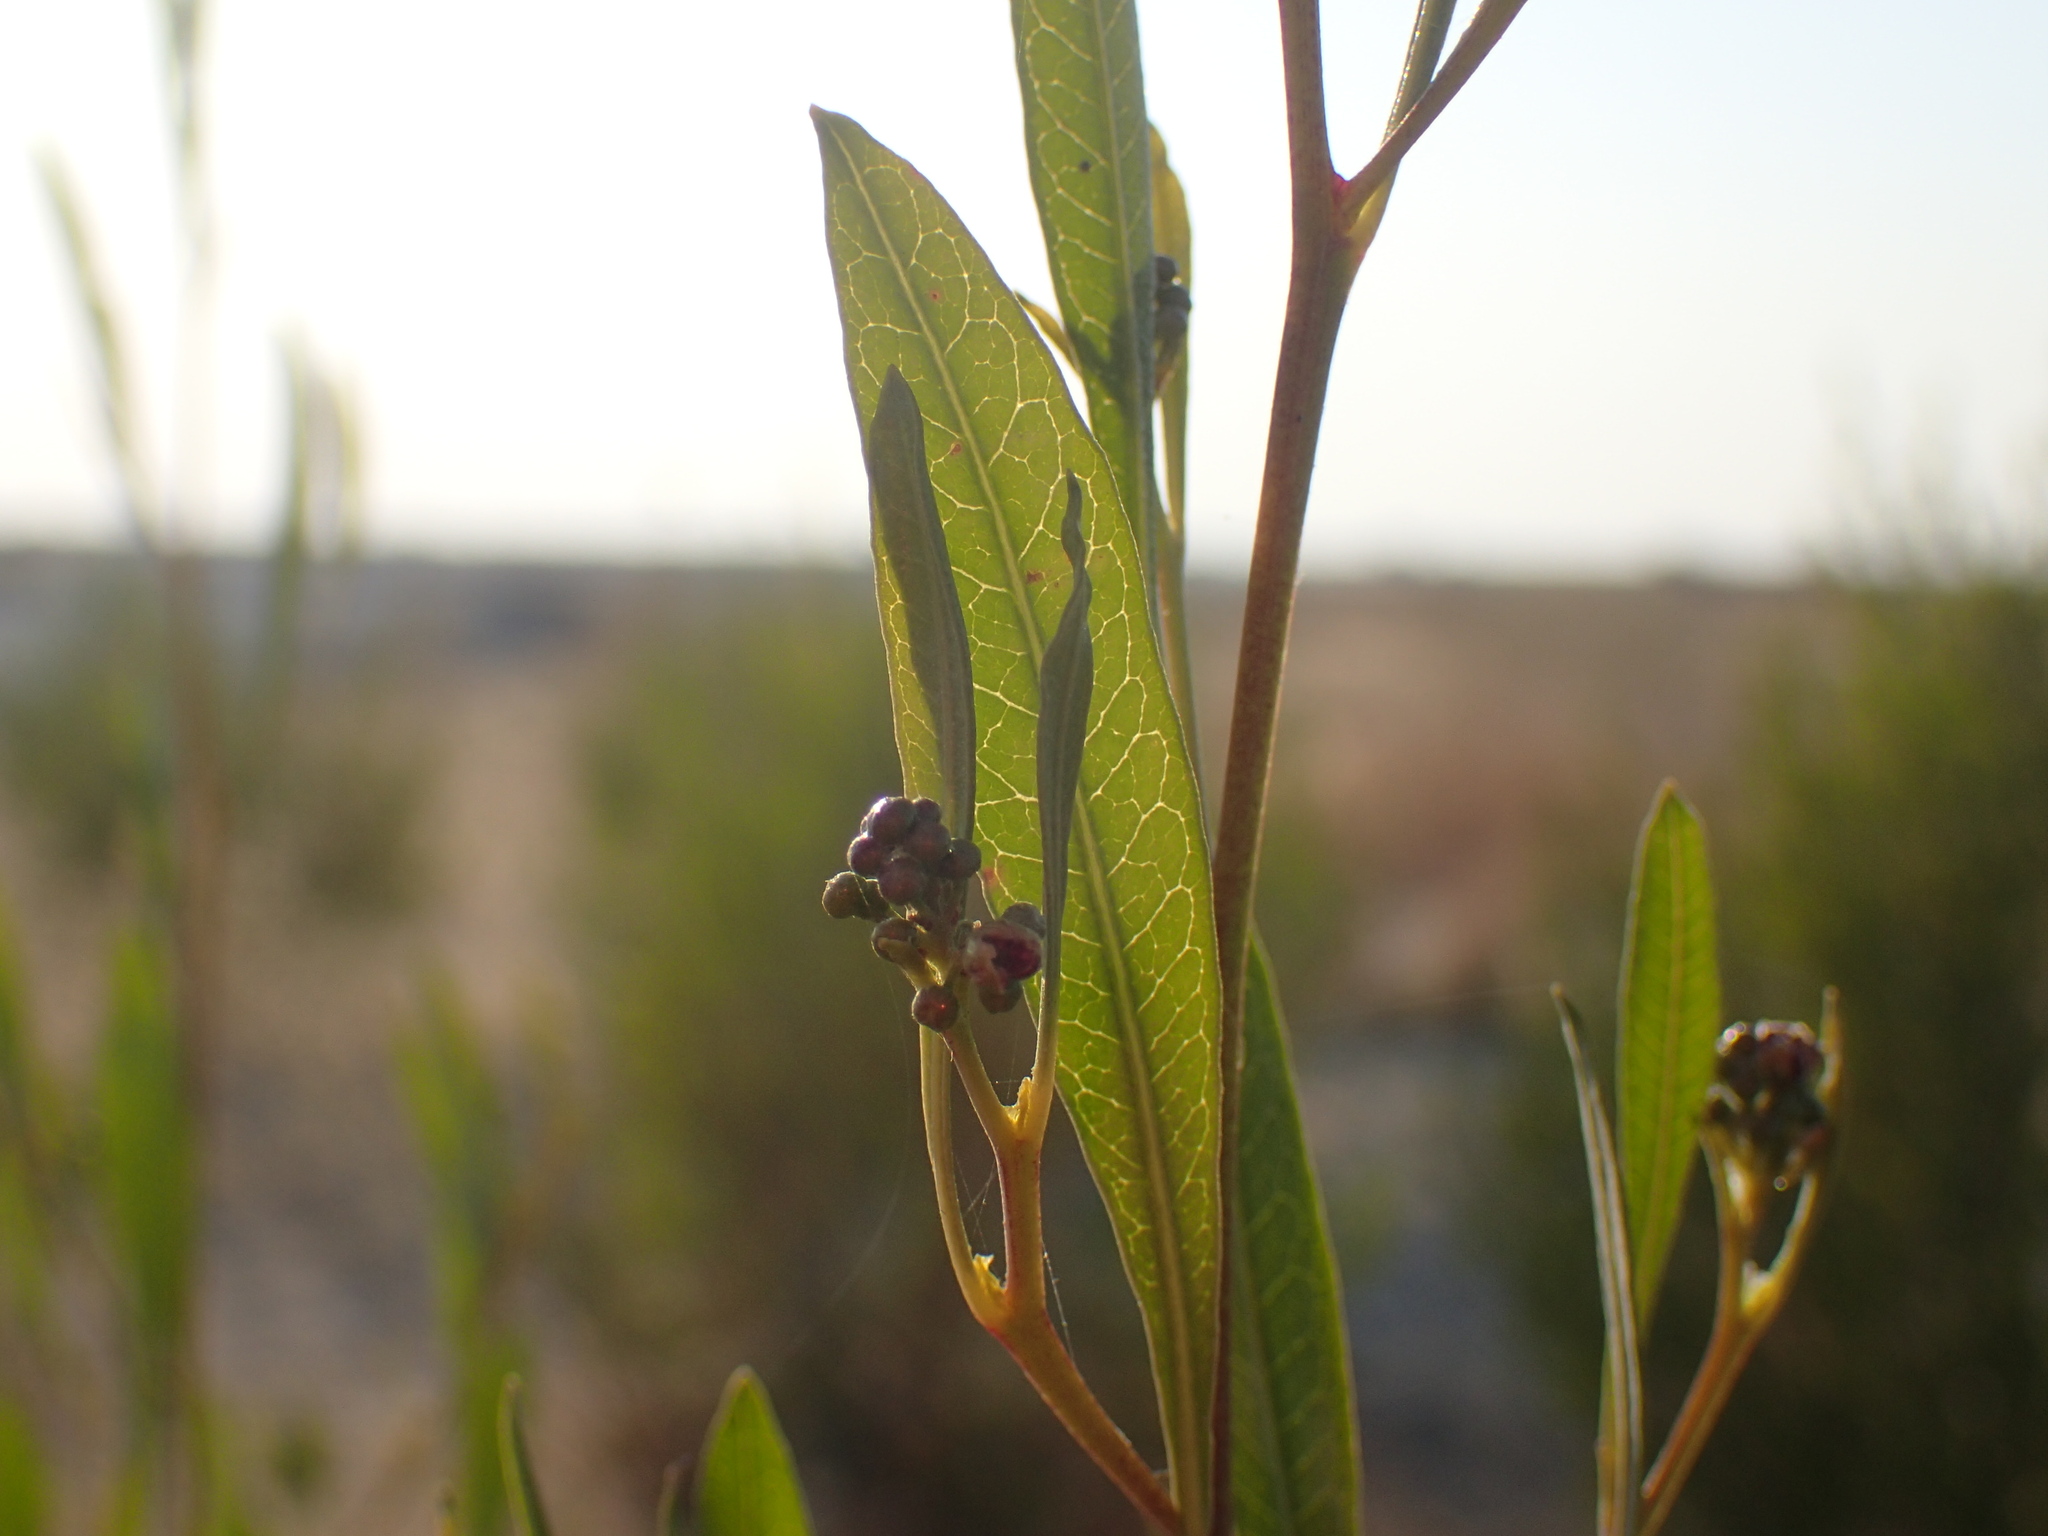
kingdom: Plantae
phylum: Tracheophyta
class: Magnoliopsida
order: Sapindales
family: Sapindaceae
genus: Dodonaea
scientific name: Dodonaea viscosa
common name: Hopbush
